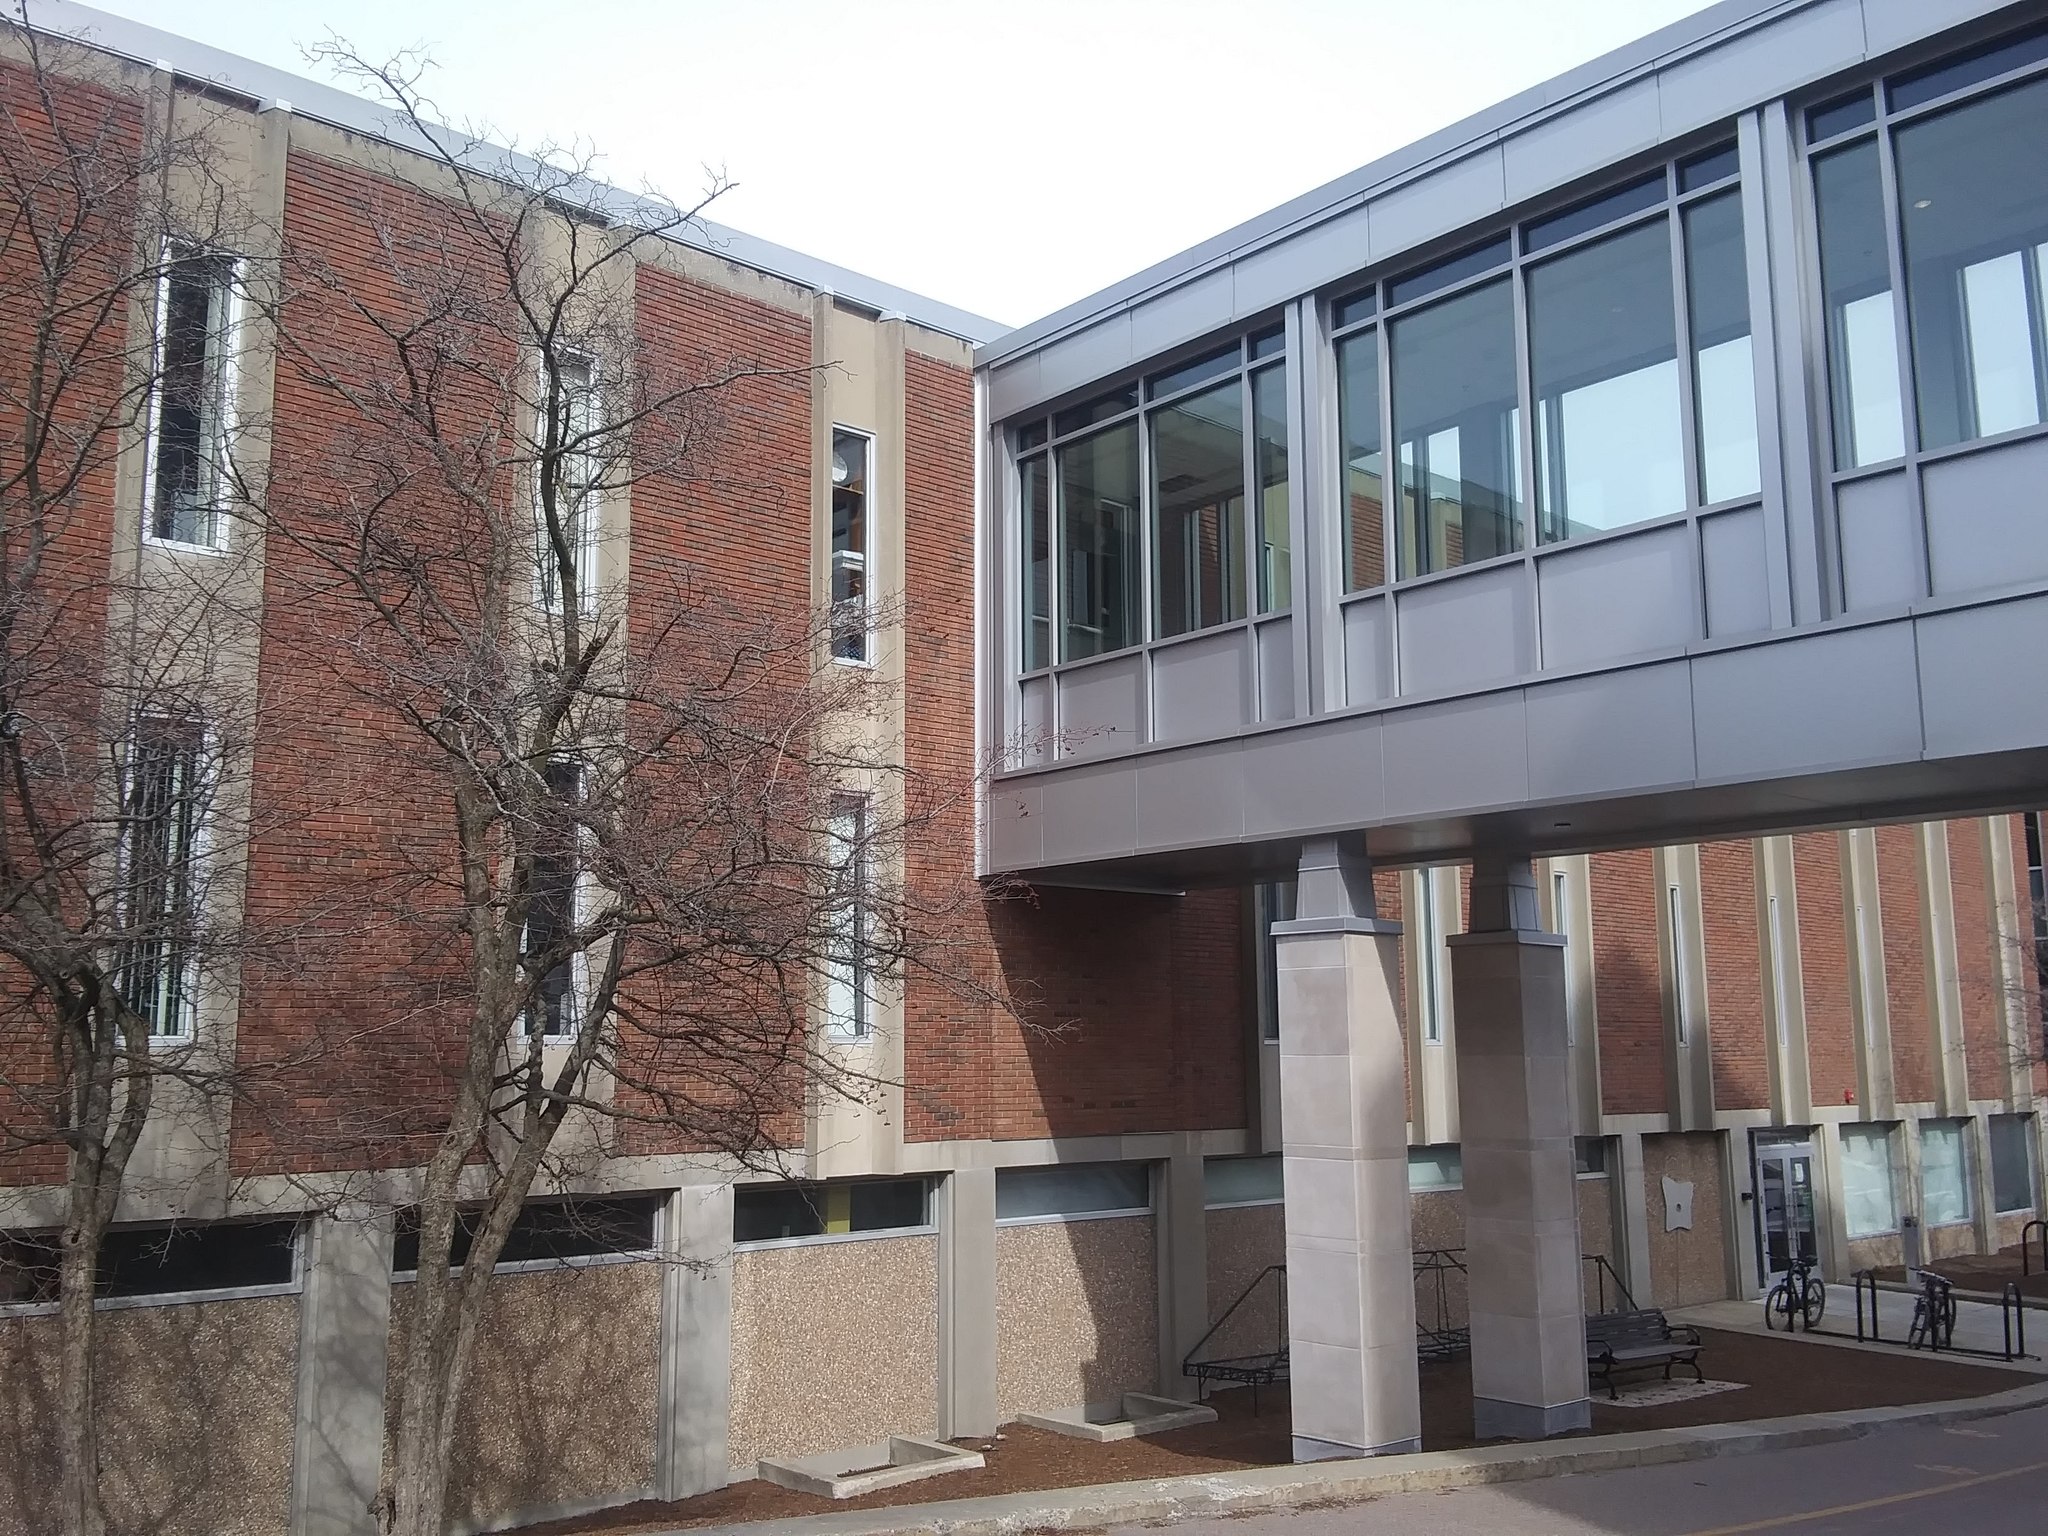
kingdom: Animalia
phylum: Chordata
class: Aves
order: Passeriformes
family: Turdidae
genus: Turdus
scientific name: Turdus migratorius
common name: American robin
